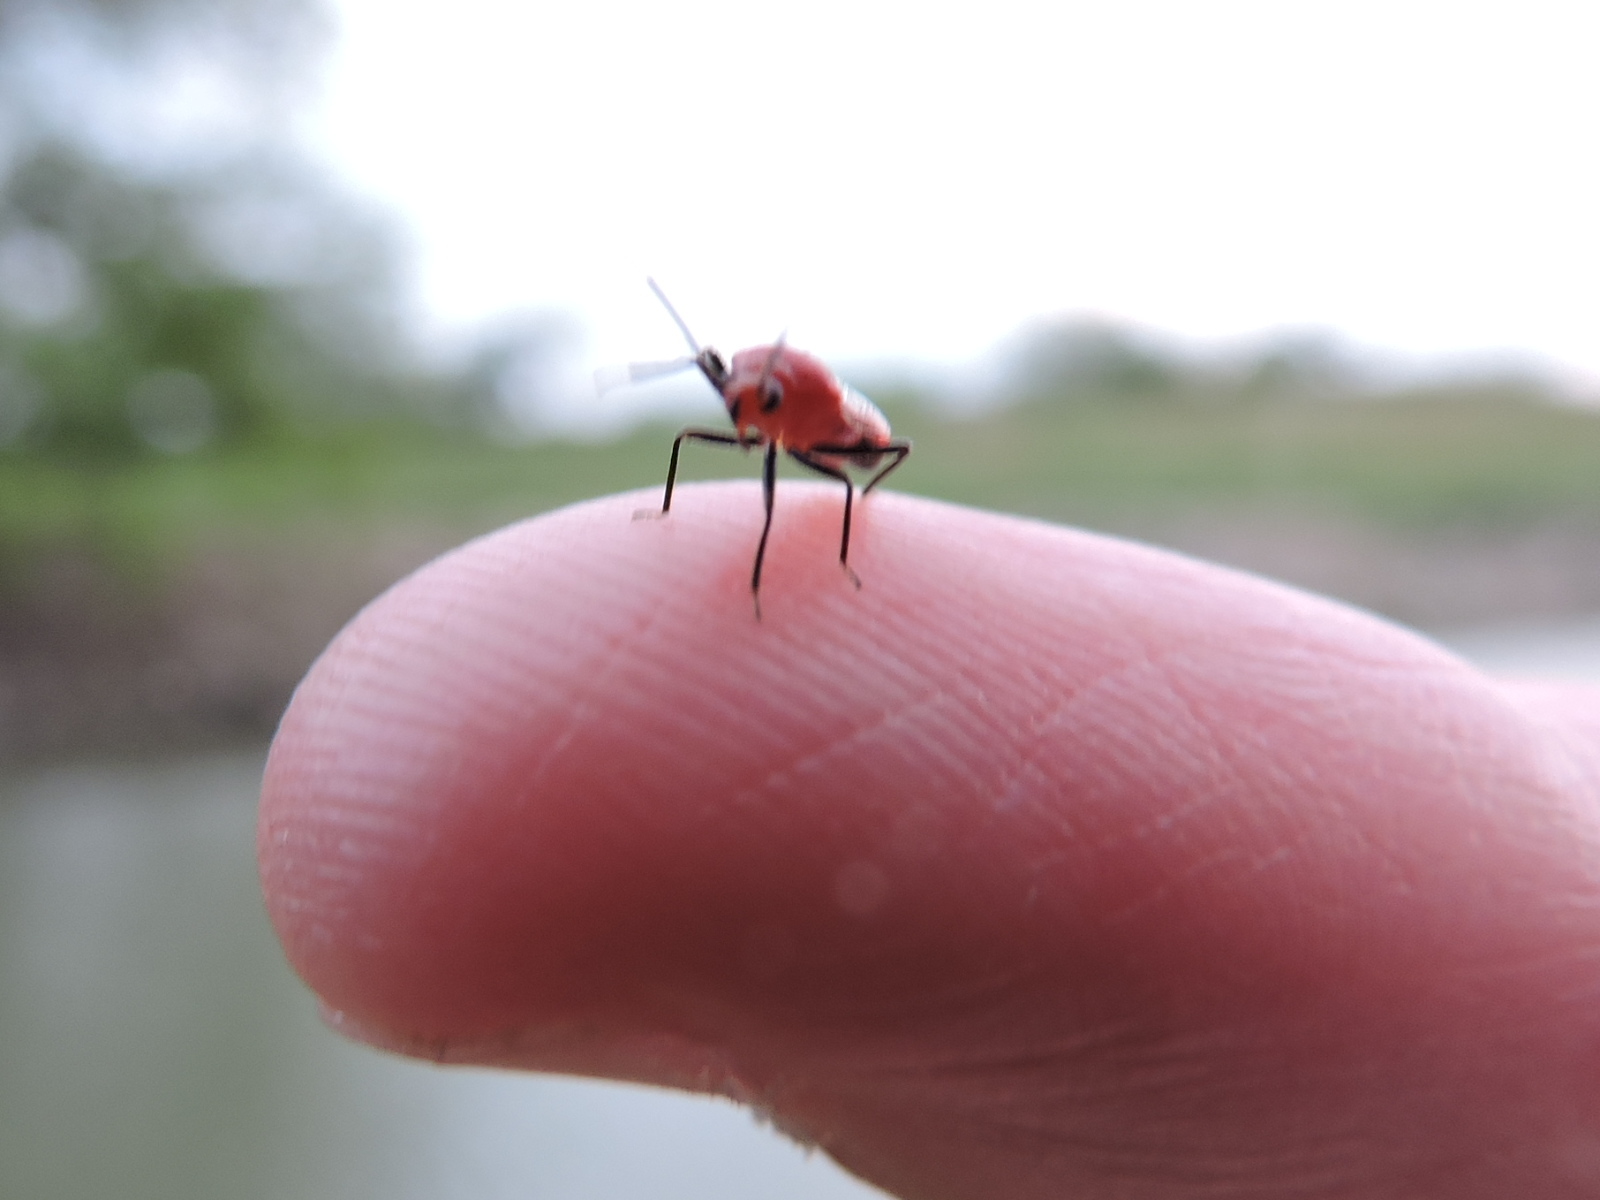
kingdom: Animalia
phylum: Arthropoda
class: Insecta
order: Hemiptera
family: Miridae
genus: Tropidosteptes
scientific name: Tropidosteptes cardinalis
